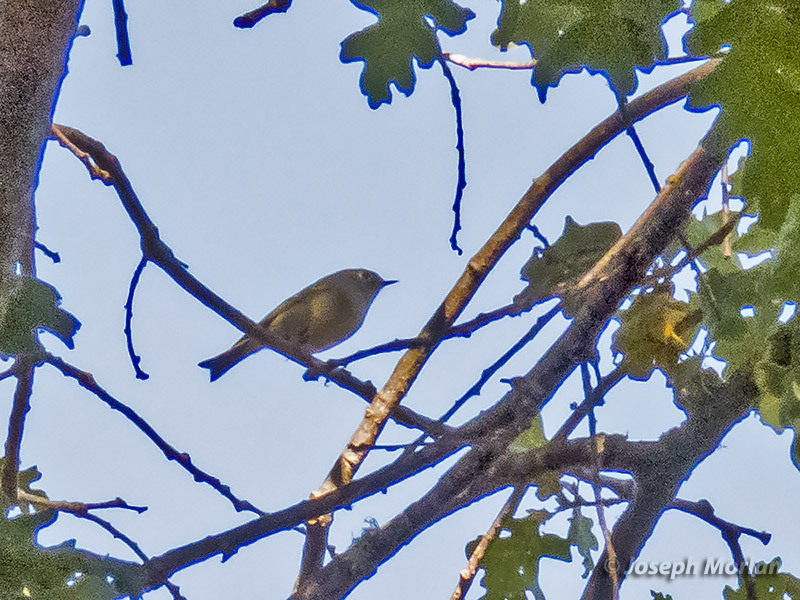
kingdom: Animalia
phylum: Chordata
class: Aves
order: Passeriformes
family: Regulidae
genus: Regulus
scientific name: Regulus calendula
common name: Ruby-crowned kinglet
